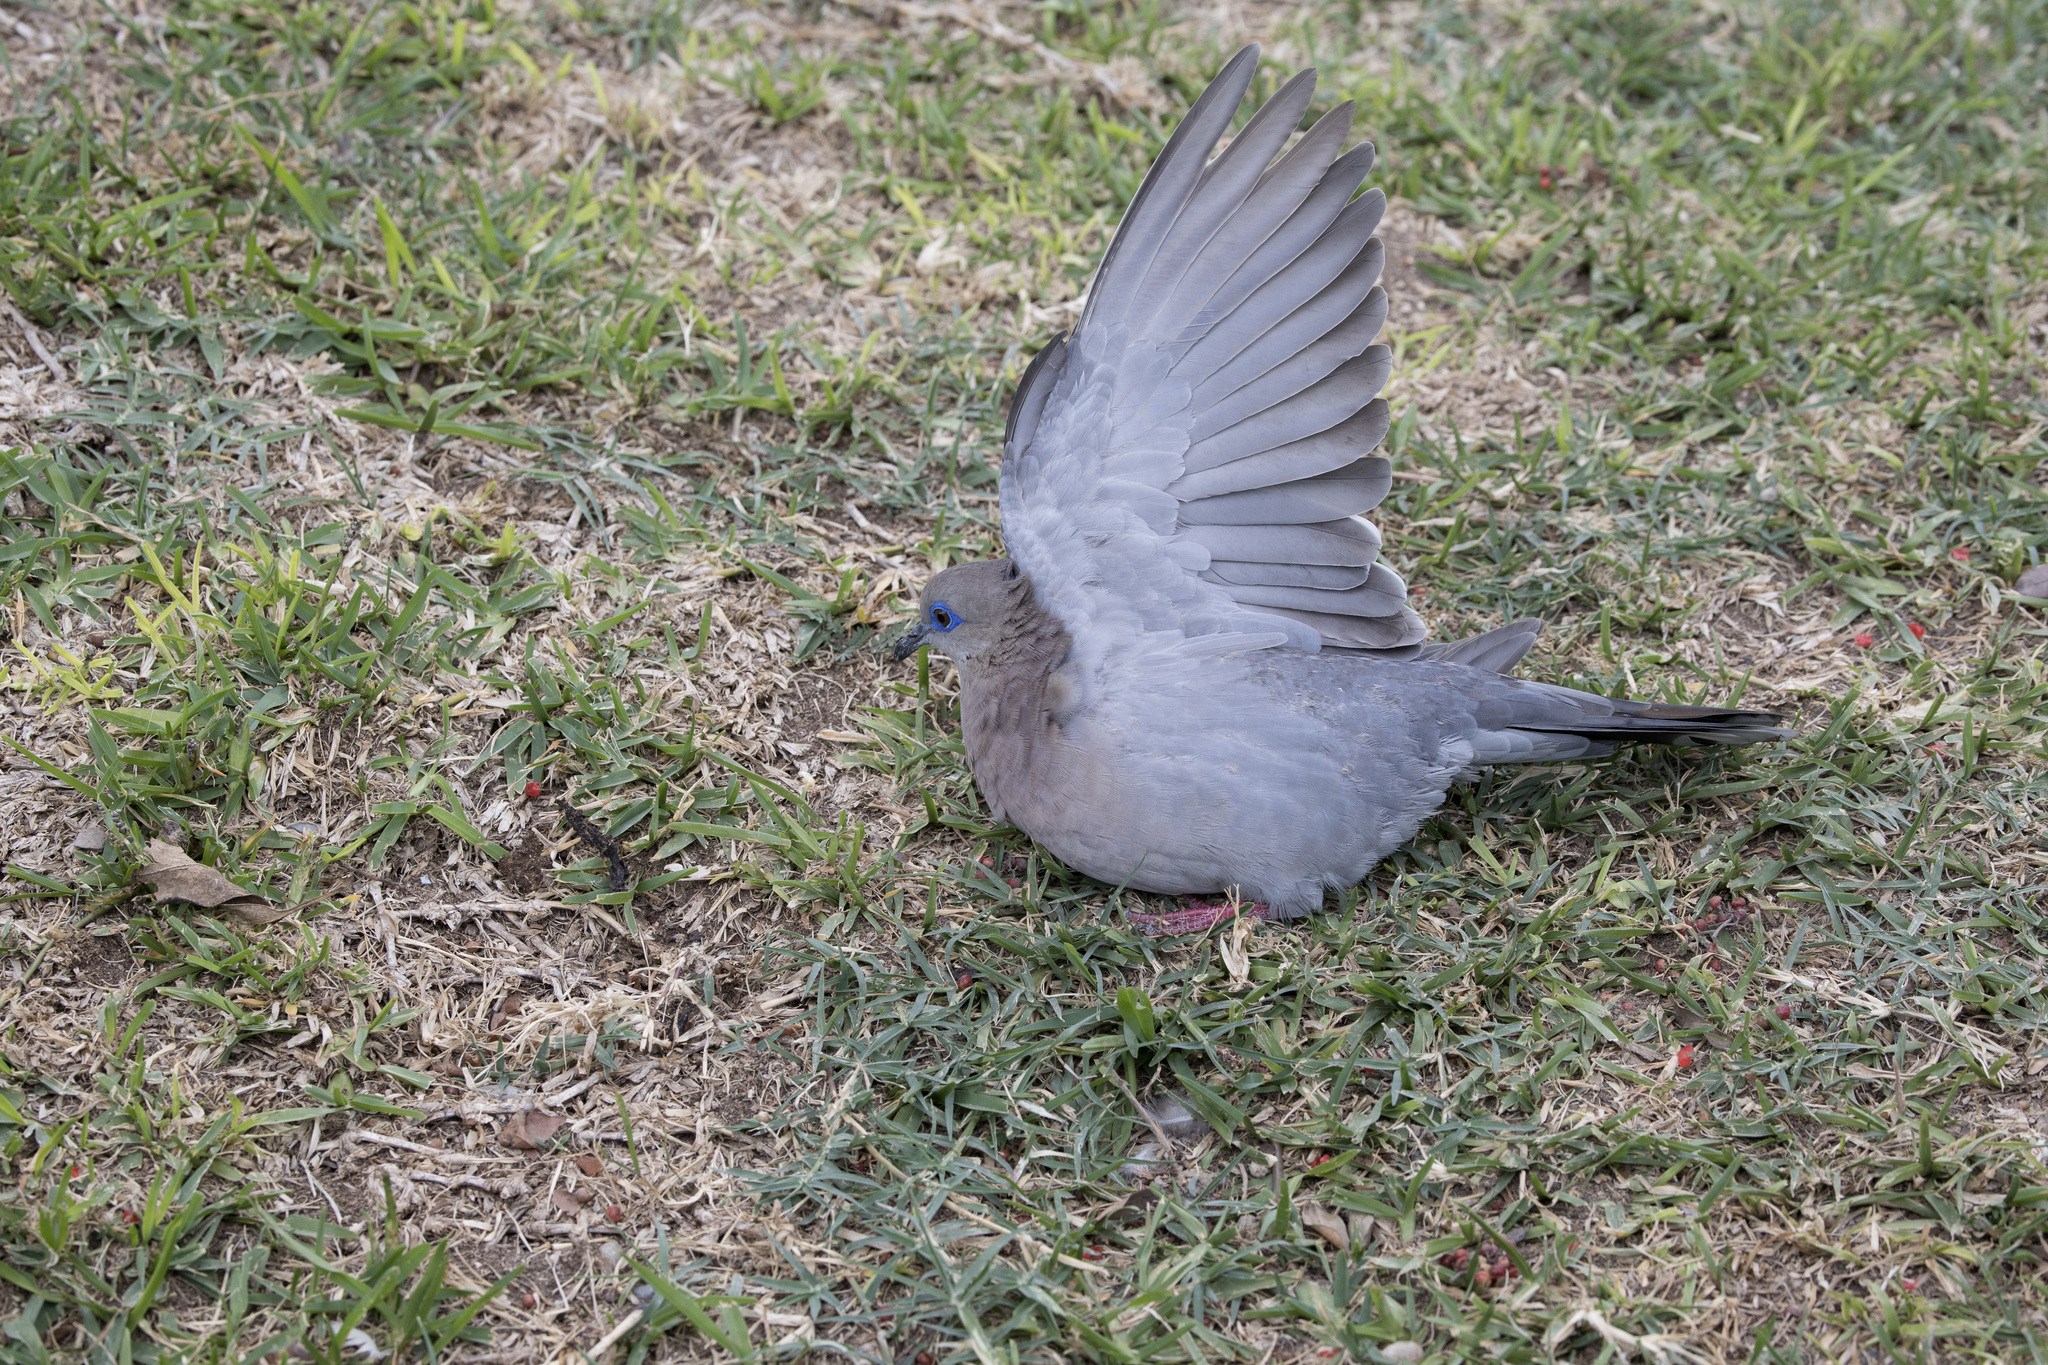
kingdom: Animalia
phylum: Chordata
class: Aves
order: Columbiformes
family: Columbidae
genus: Zenaida
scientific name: Zenaida meloda
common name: West peruvian dove
